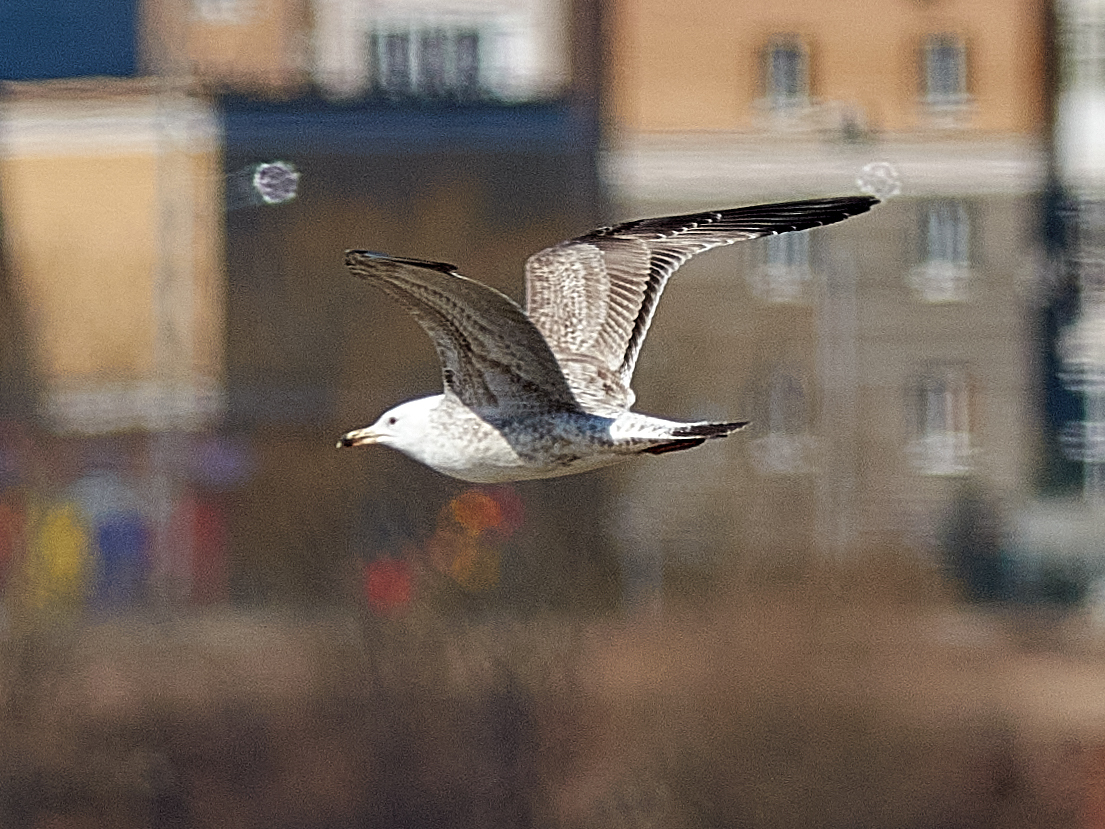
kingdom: Animalia
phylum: Chordata
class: Aves
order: Charadriiformes
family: Laridae
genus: Larus
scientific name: Larus cachinnans
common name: Caspian gull
